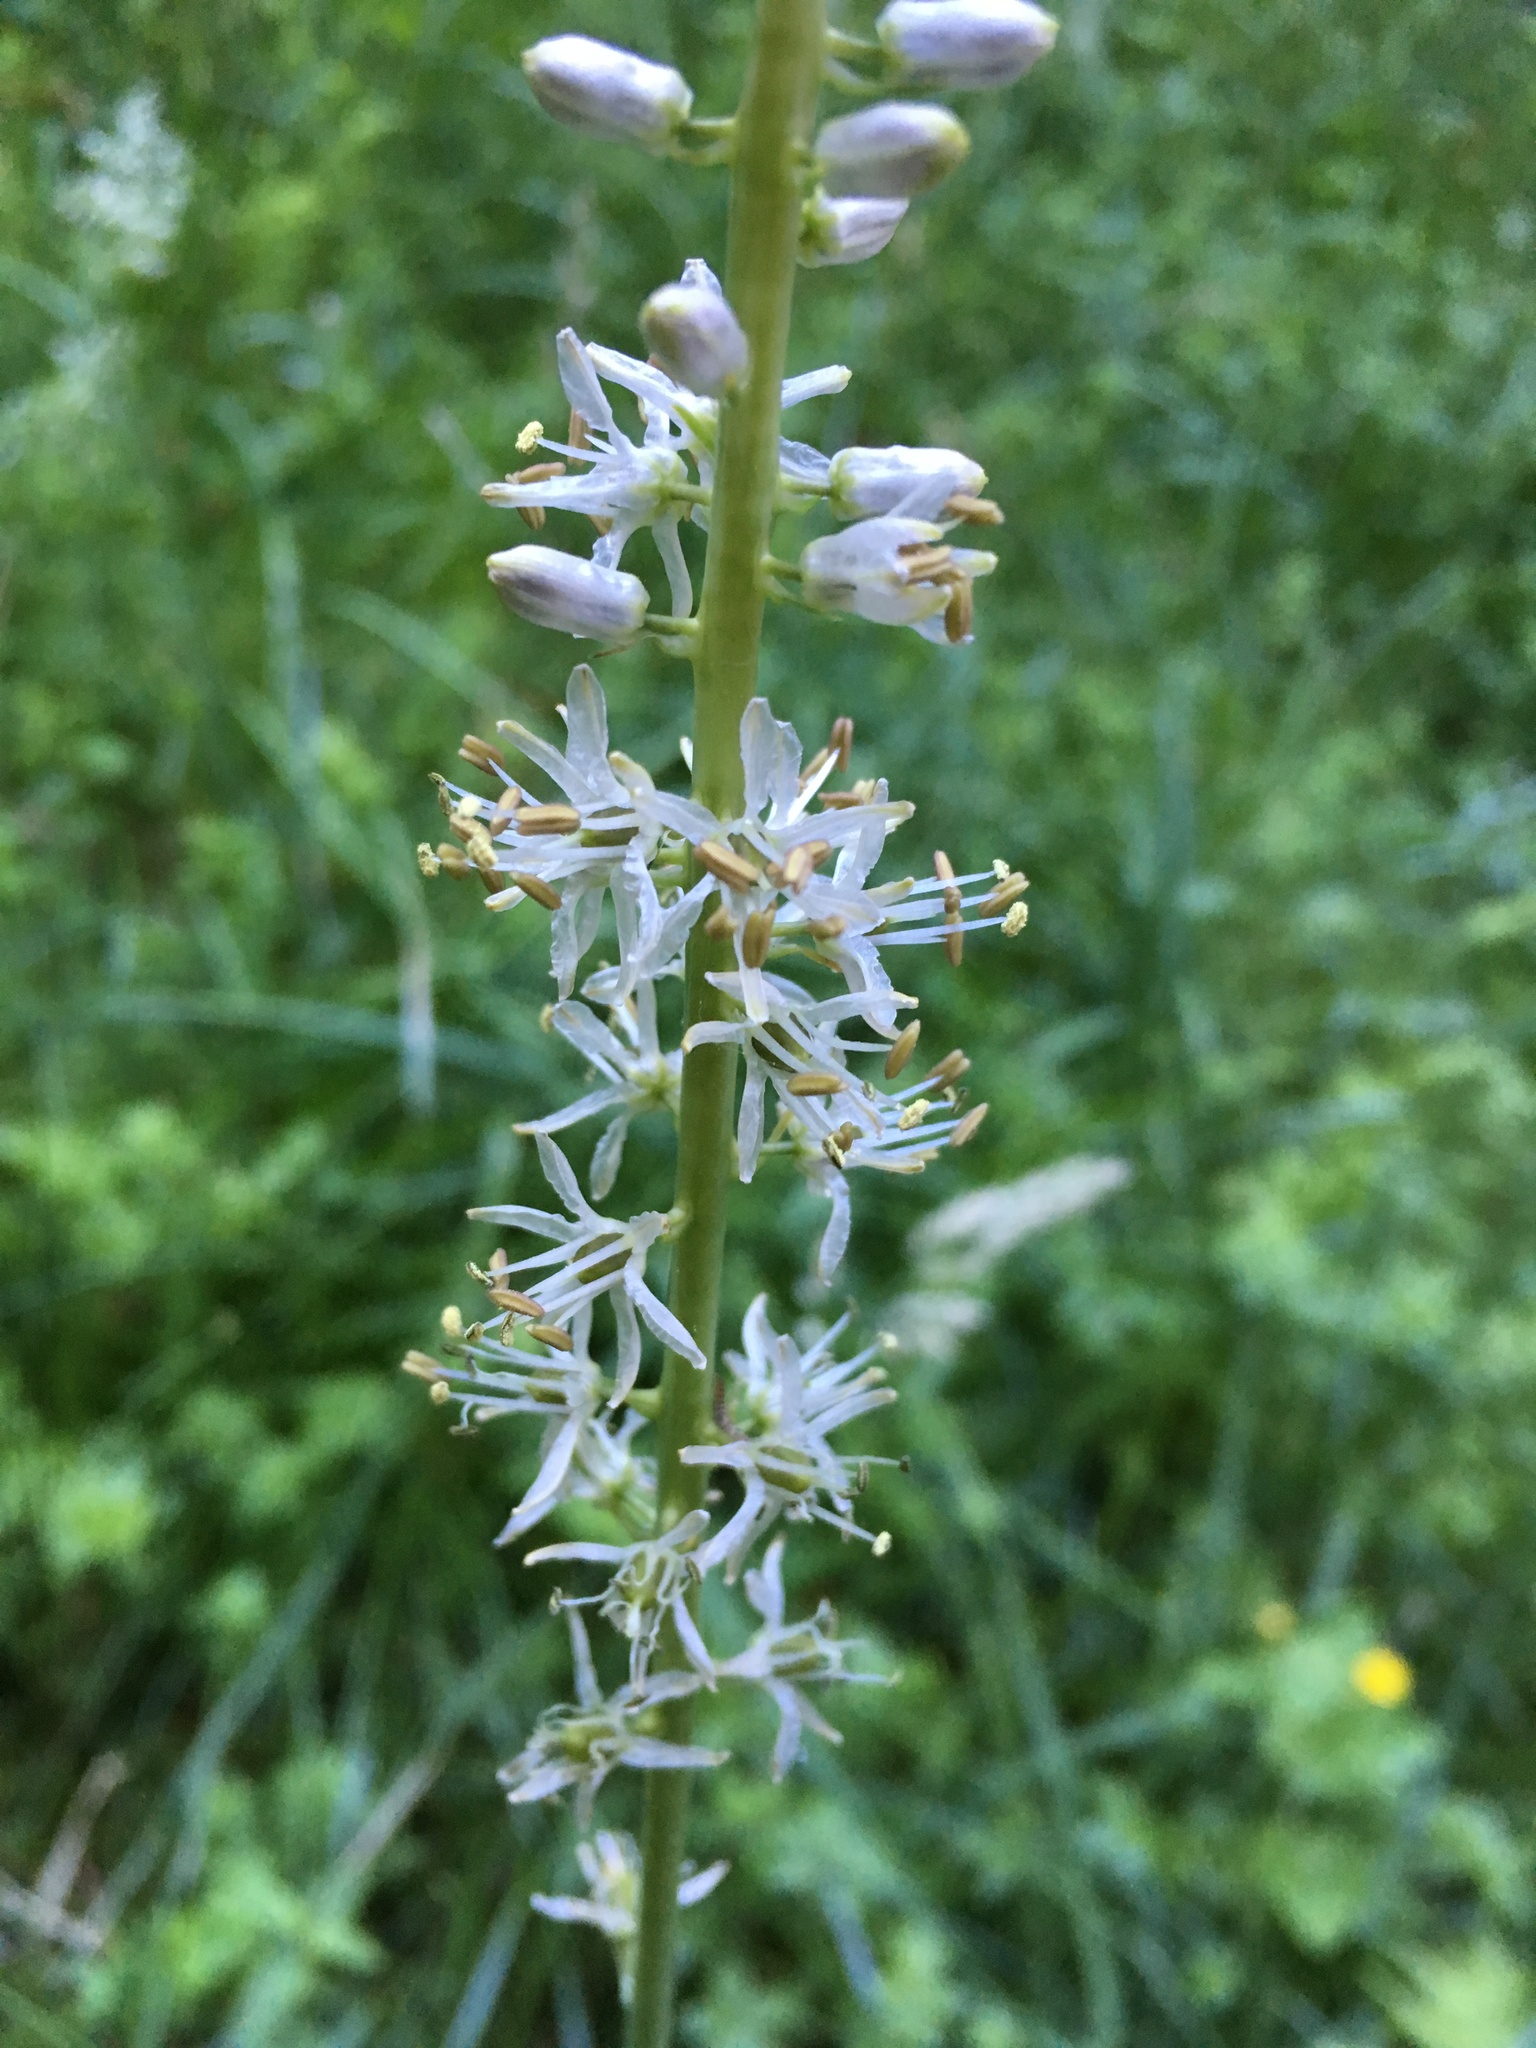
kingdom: Plantae
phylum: Tracheophyta
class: Liliopsida
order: Asparagales
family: Asparagaceae
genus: Hastingsia
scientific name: Hastingsia alba
